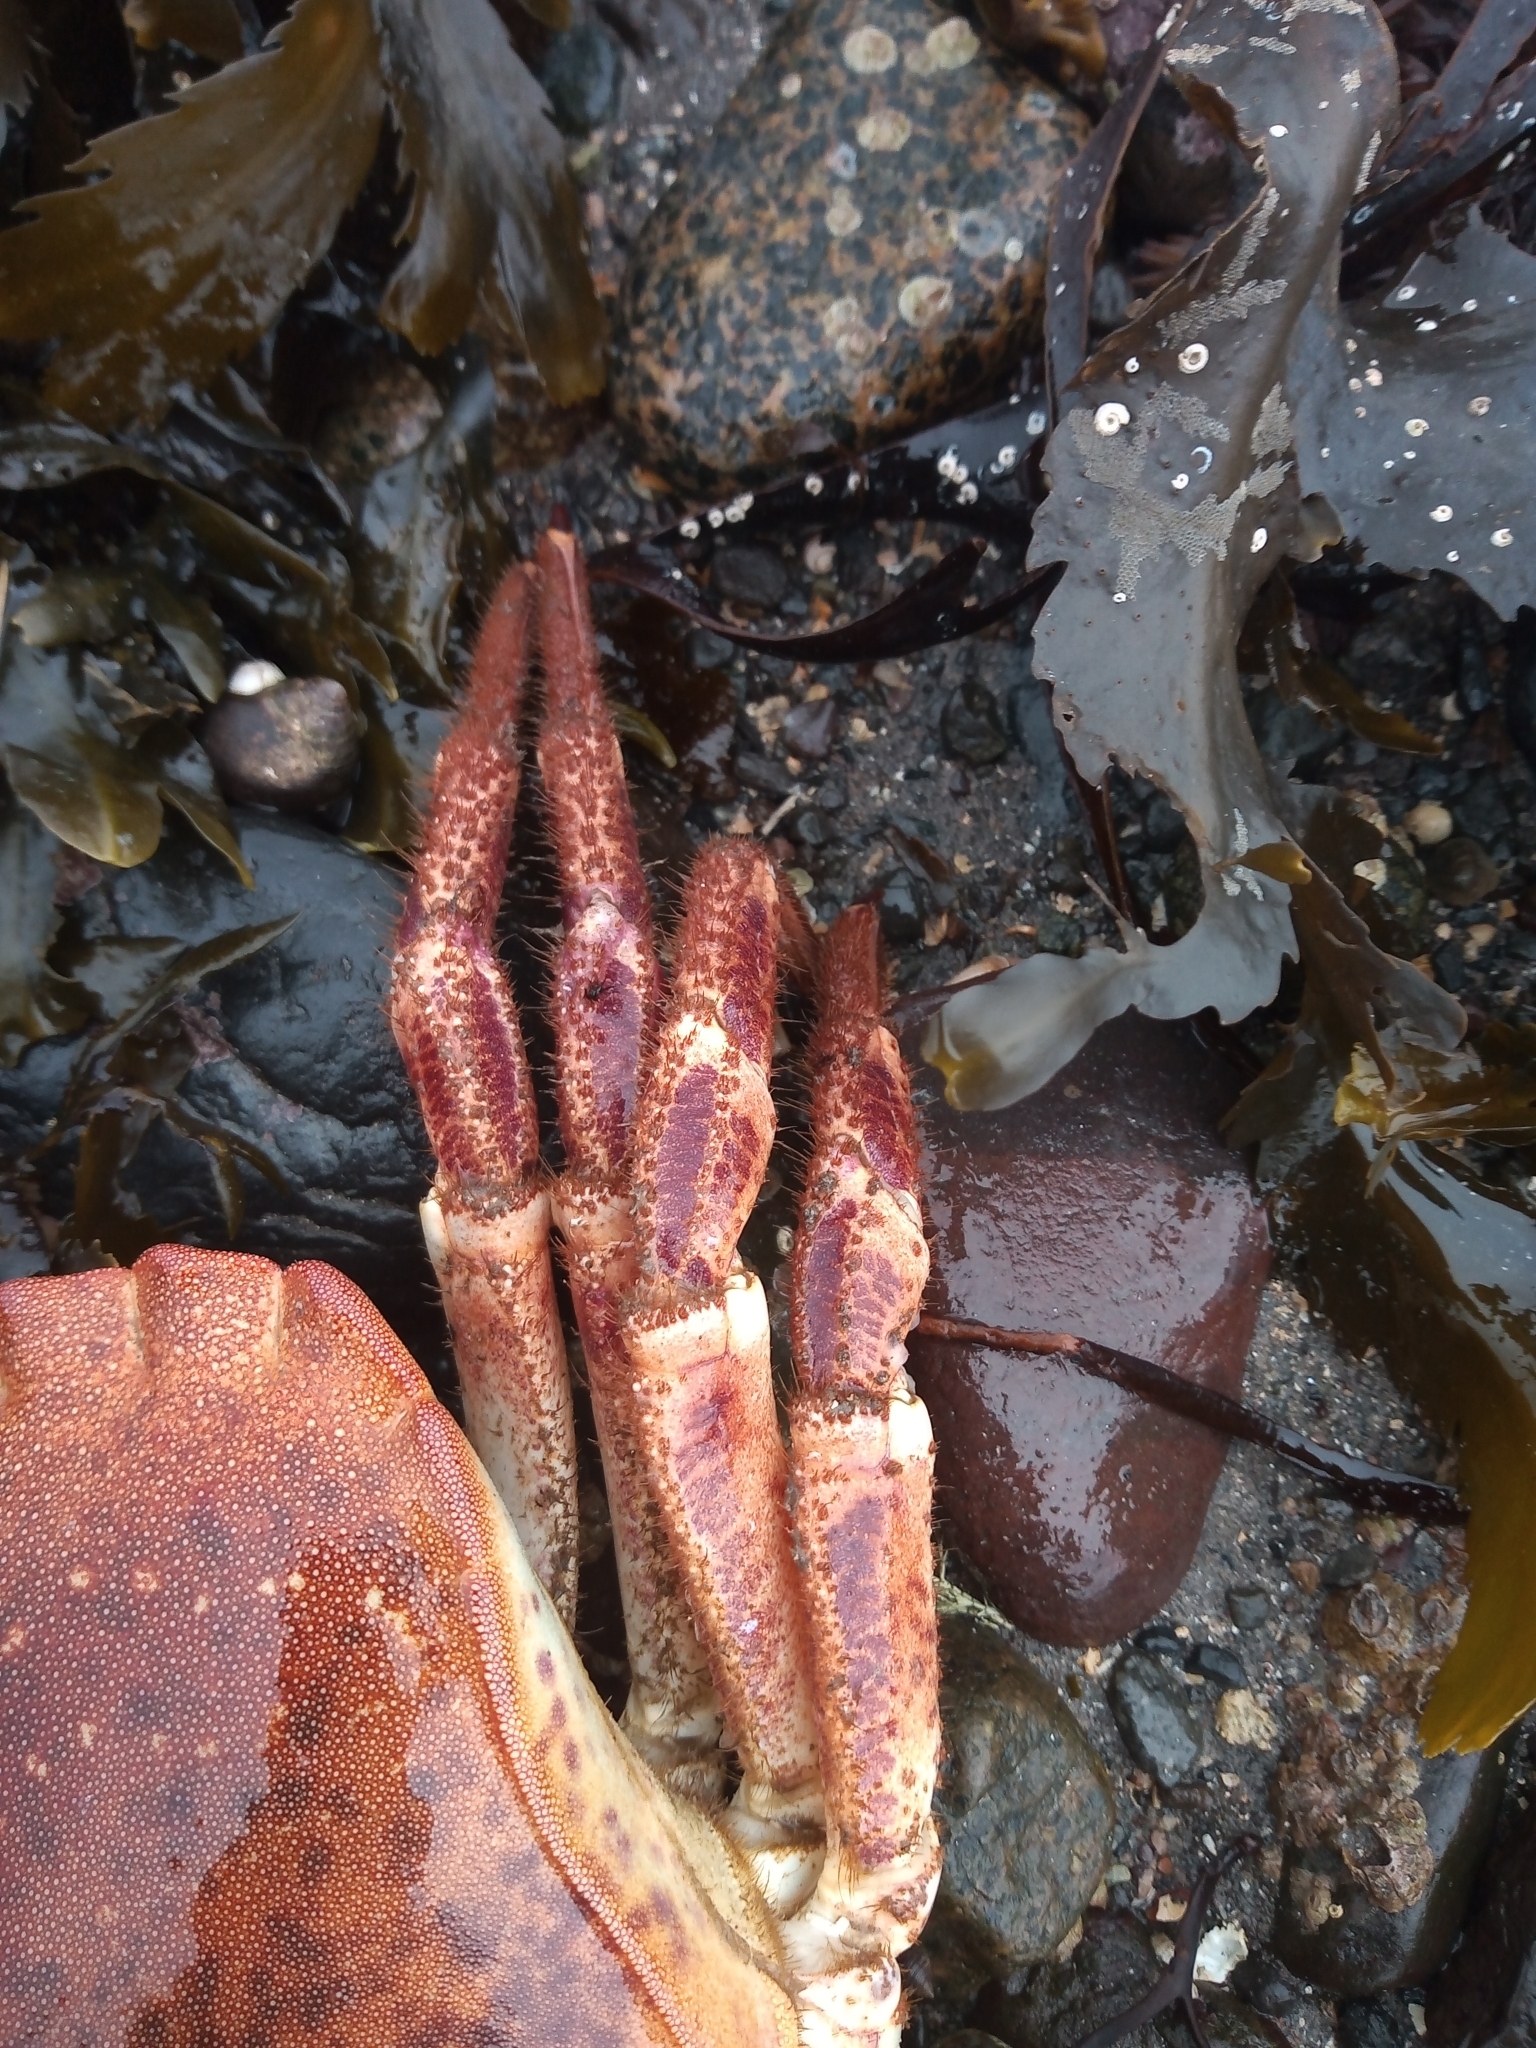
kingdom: Animalia
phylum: Arthropoda
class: Malacostraca
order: Decapoda
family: Cancridae
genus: Cancer
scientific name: Cancer pagurus
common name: Edible crab
